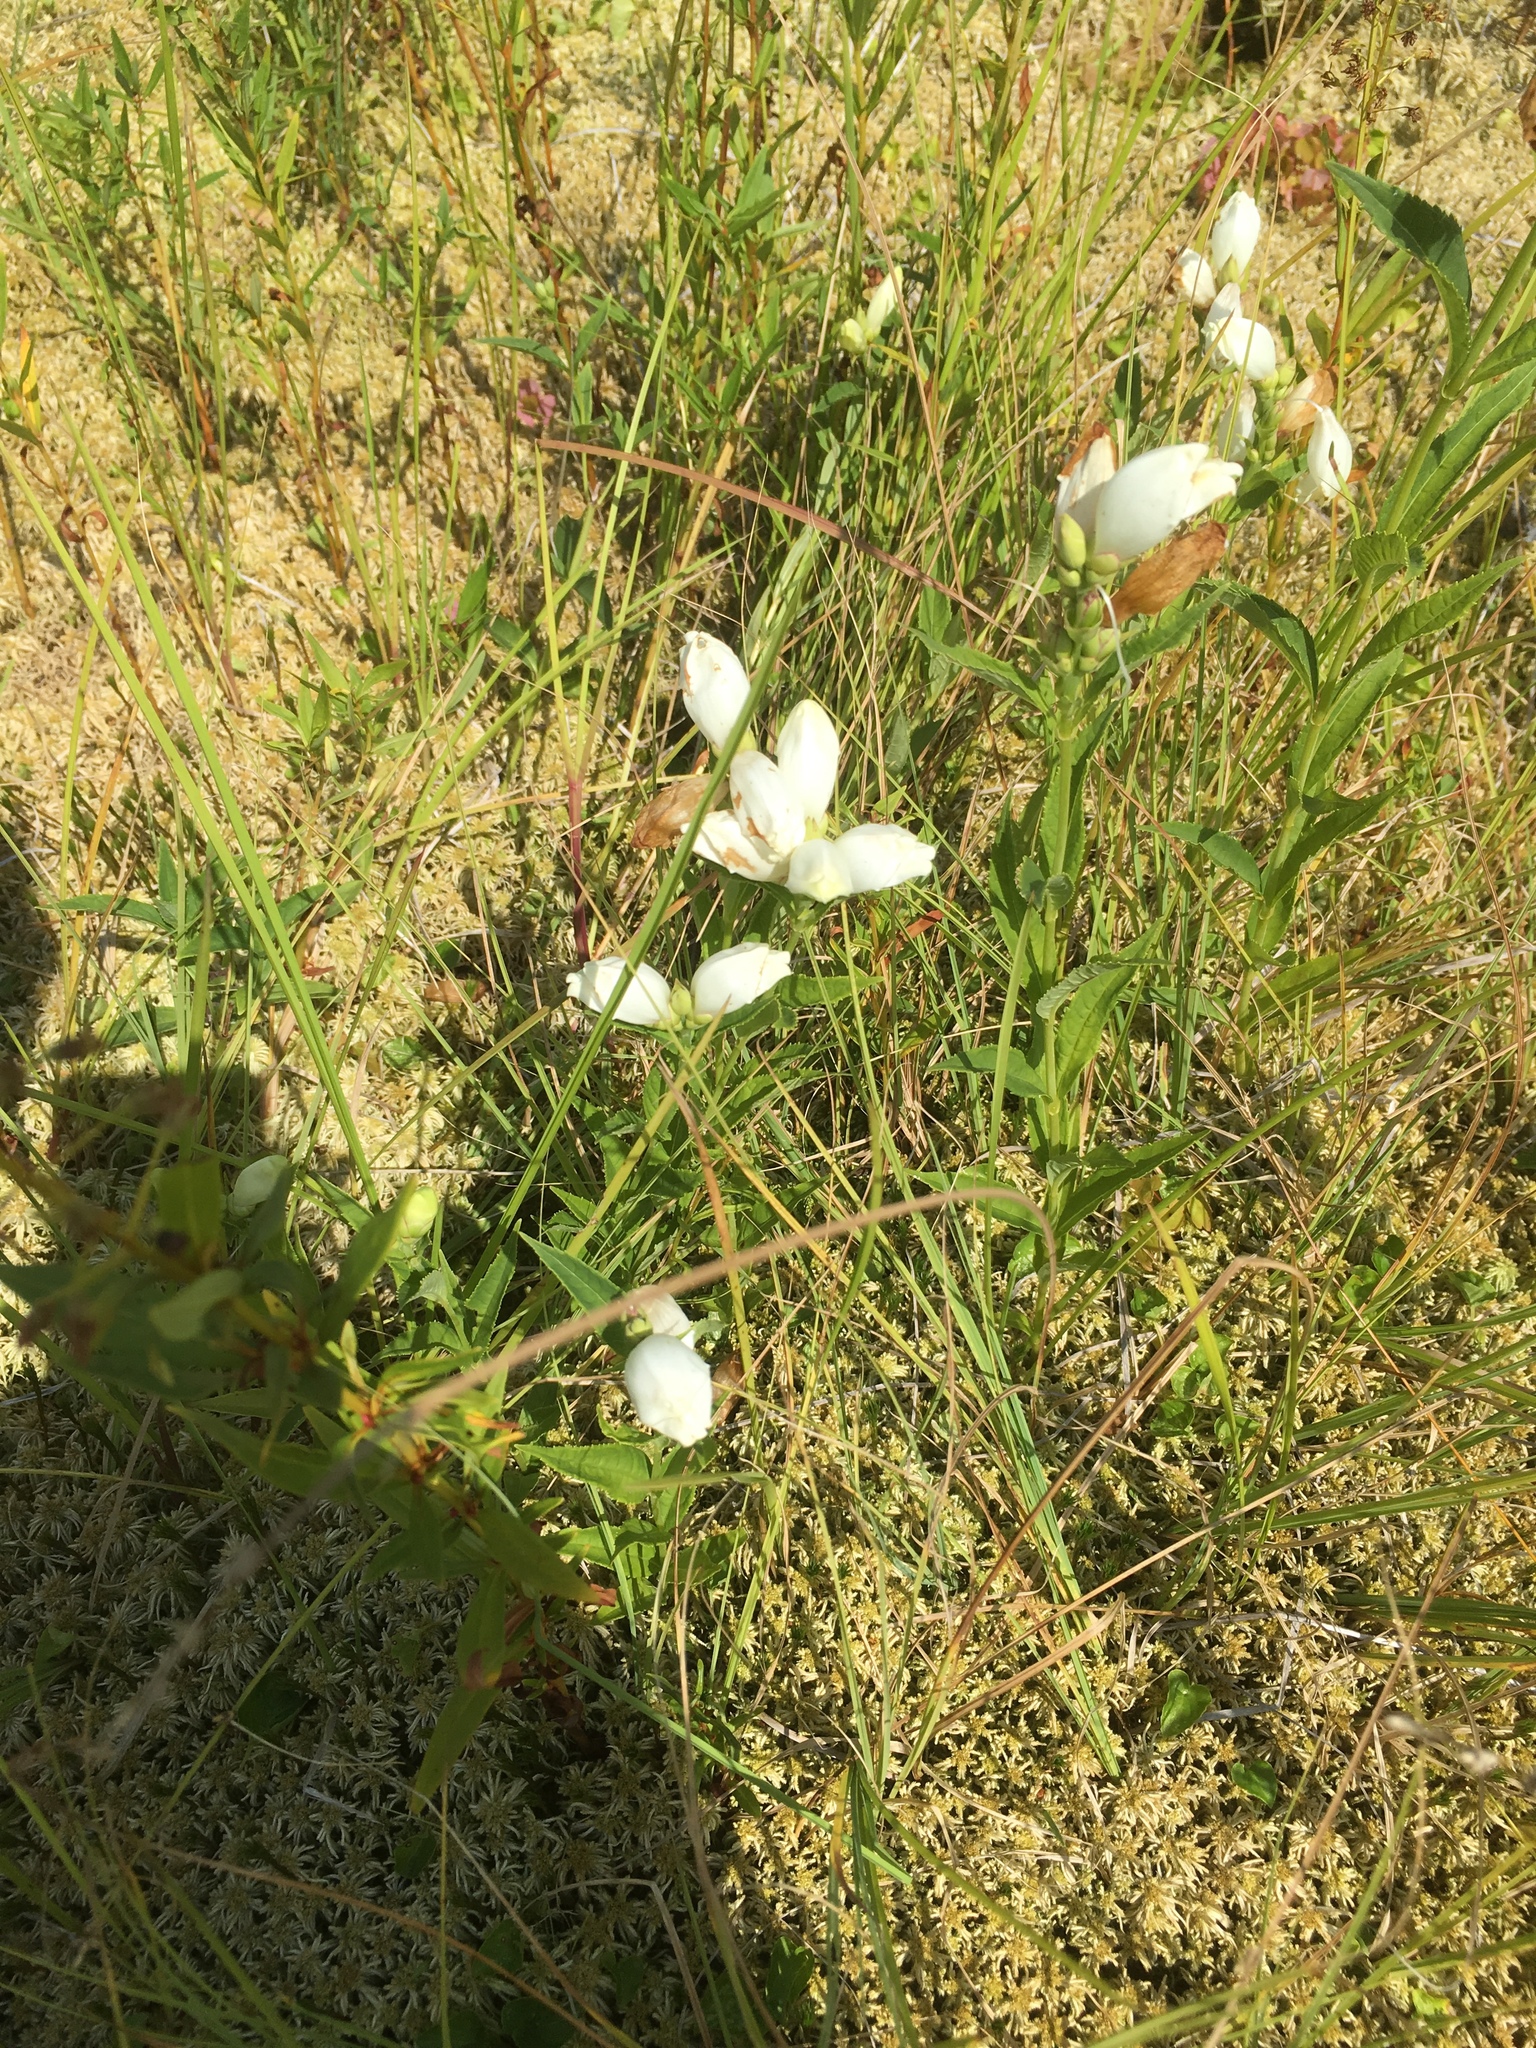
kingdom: Plantae
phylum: Tracheophyta
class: Magnoliopsida
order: Lamiales
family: Plantaginaceae
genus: Chelone
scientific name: Chelone glabra
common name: Snakehead
